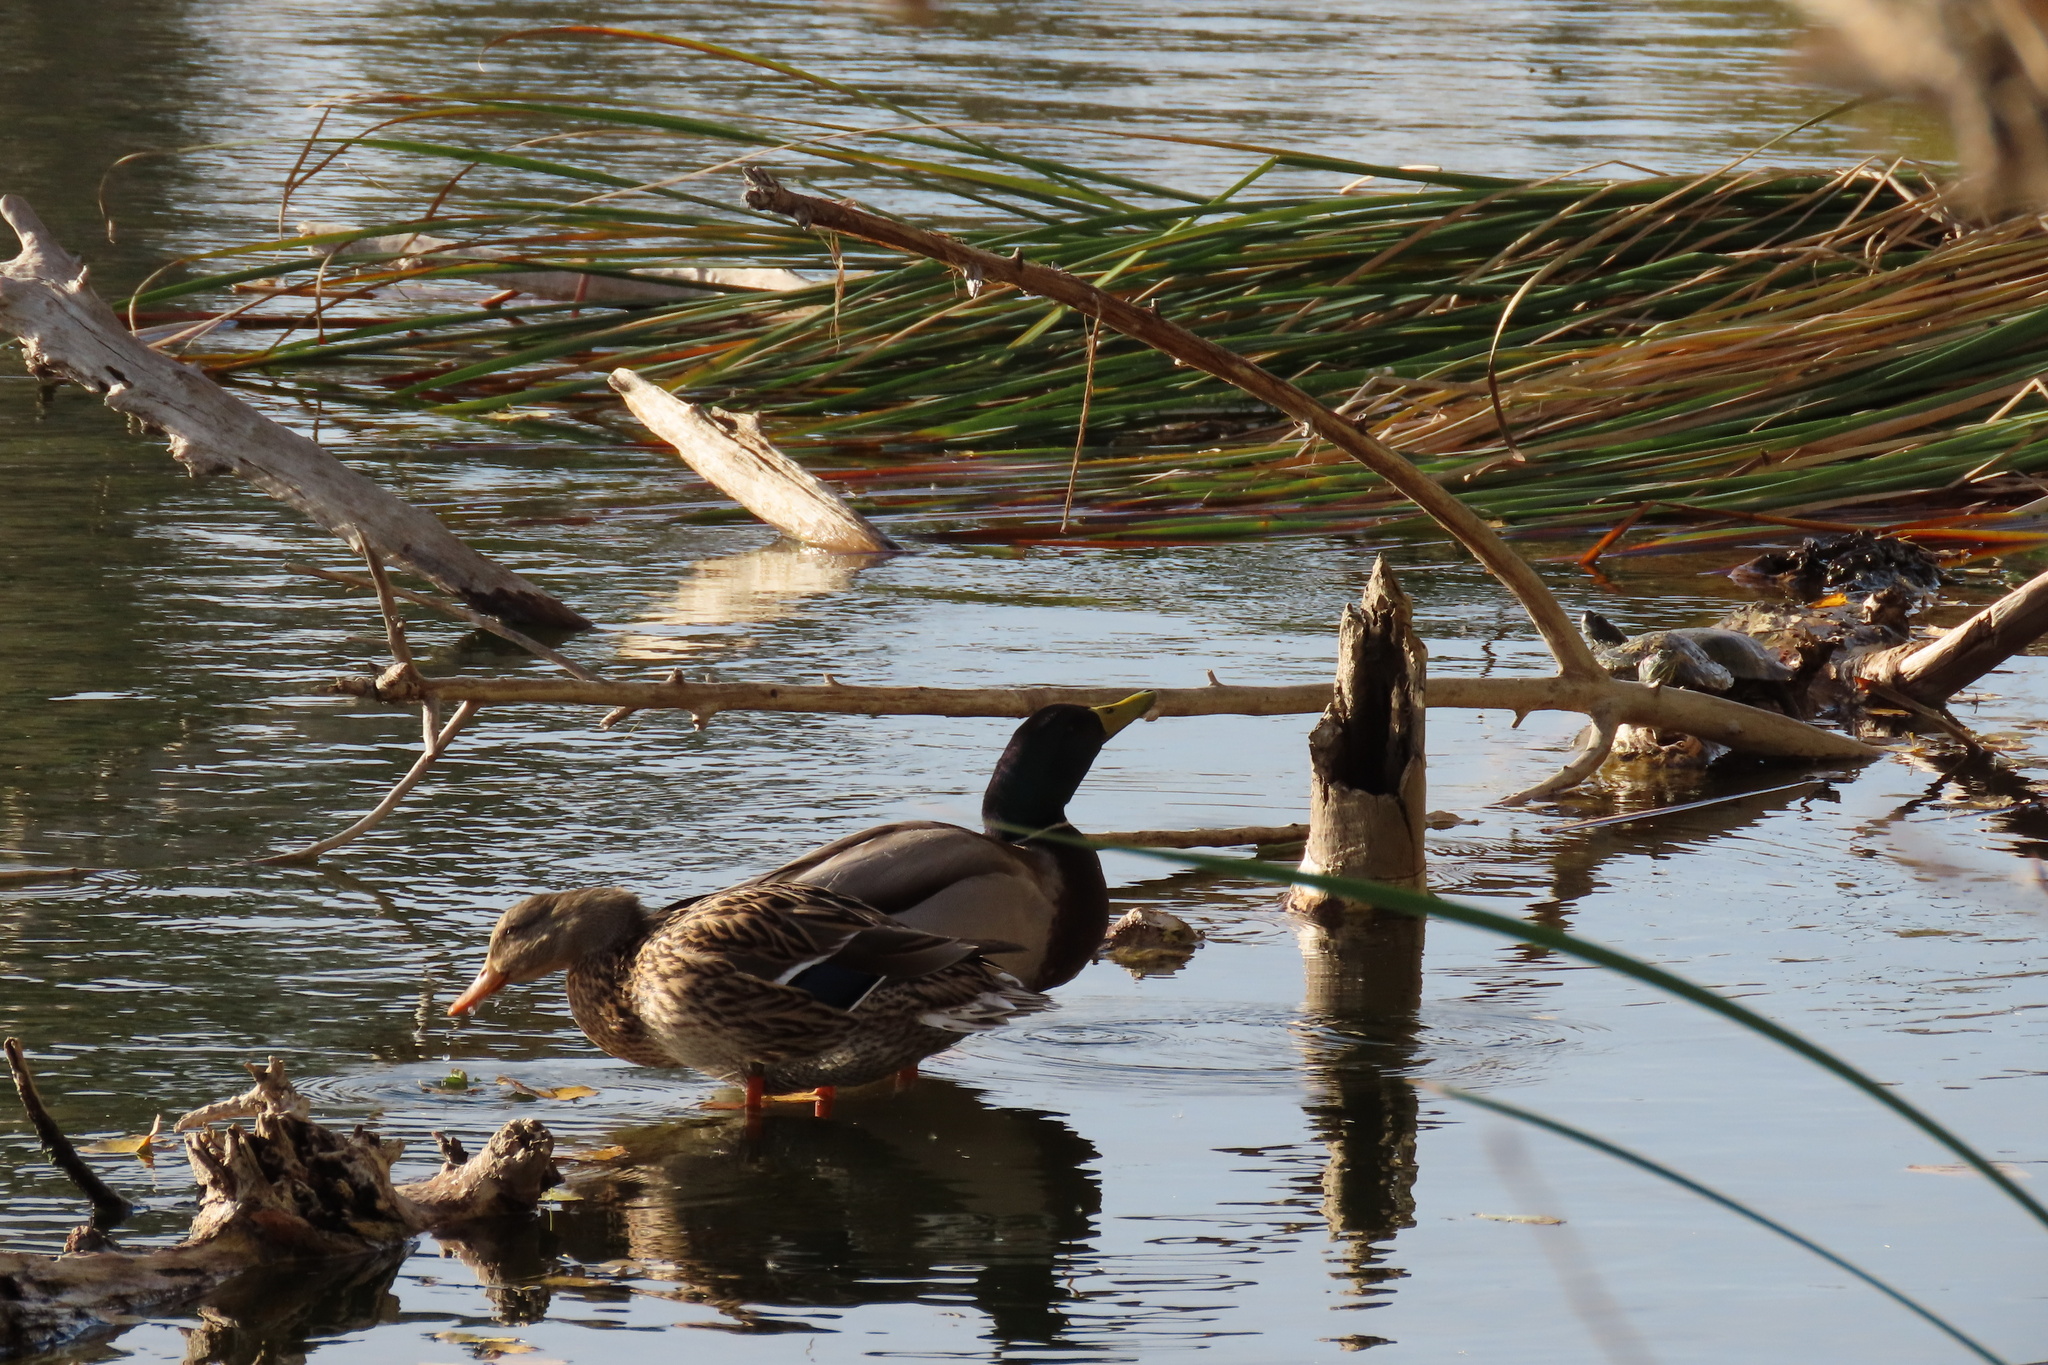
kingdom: Animalia
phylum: Chordata
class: Aves
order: Anseriformes
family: Anatidae
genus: Anas
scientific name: Anas platyrhynchos
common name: Mallard
